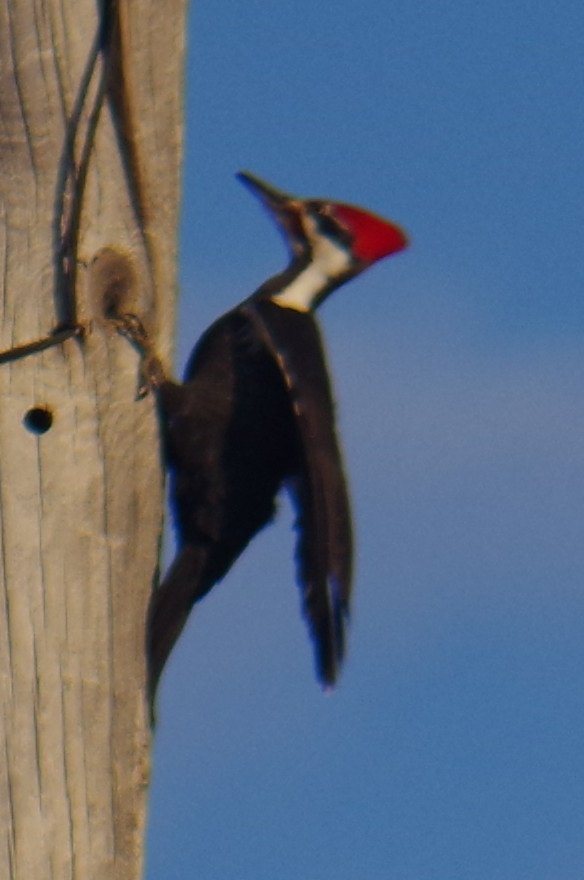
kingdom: Animalia
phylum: Chordata
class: Aves
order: Piciformes
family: Picidae
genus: Dryocopus
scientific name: Dryocopus pileatus
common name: Pileated woodpecker
